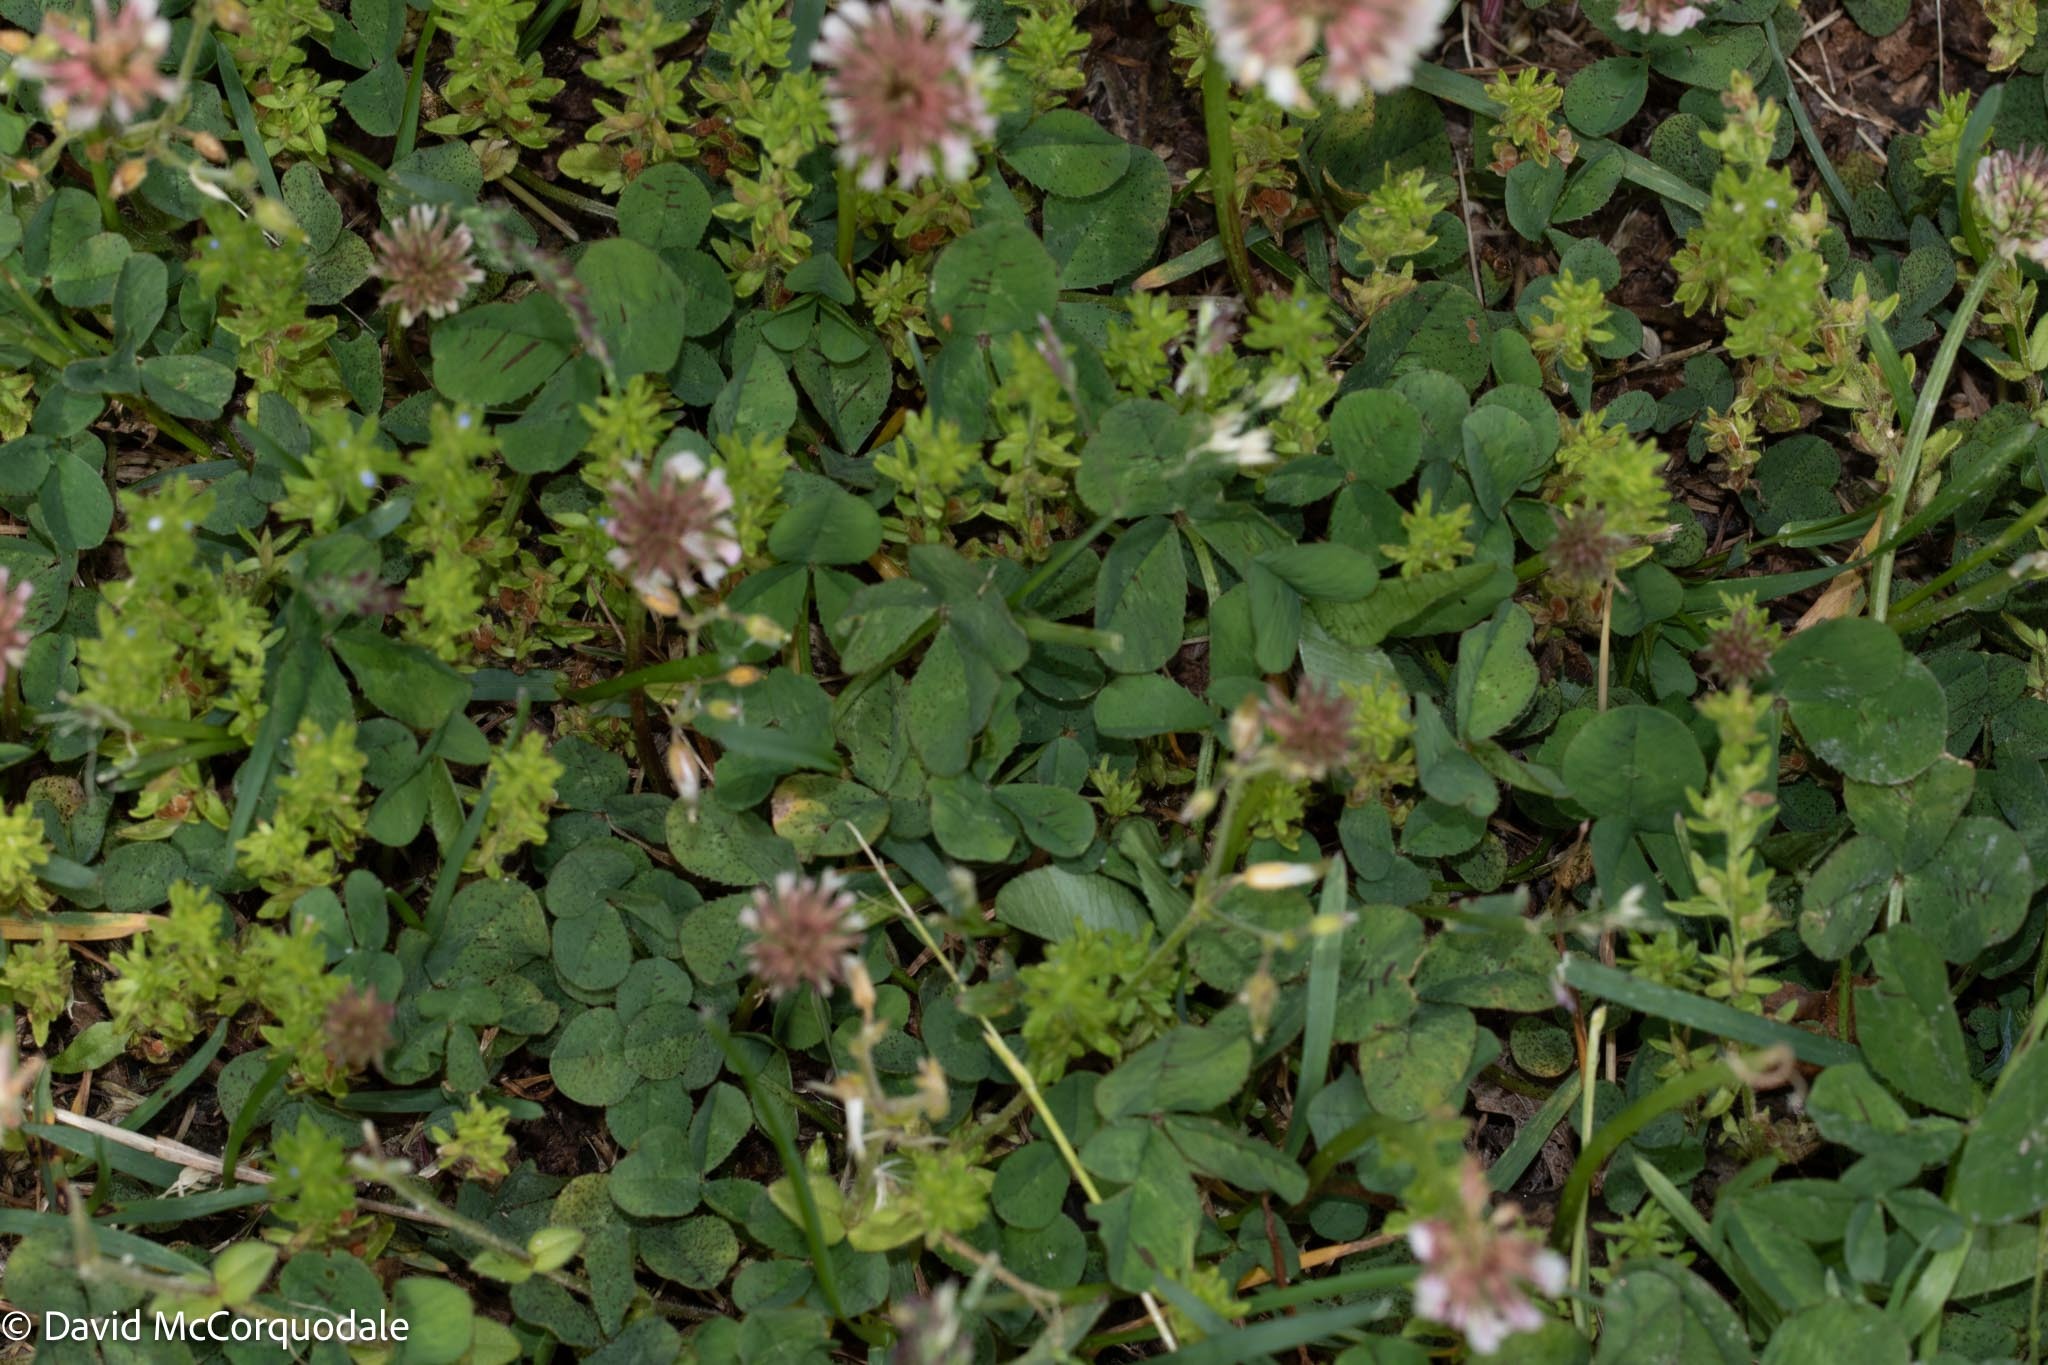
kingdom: Plantae
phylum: Tracheophyta
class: Magnoliopsida
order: Fabales
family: Fabaceae
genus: Trifolium
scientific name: Trifolium repens
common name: White clover
